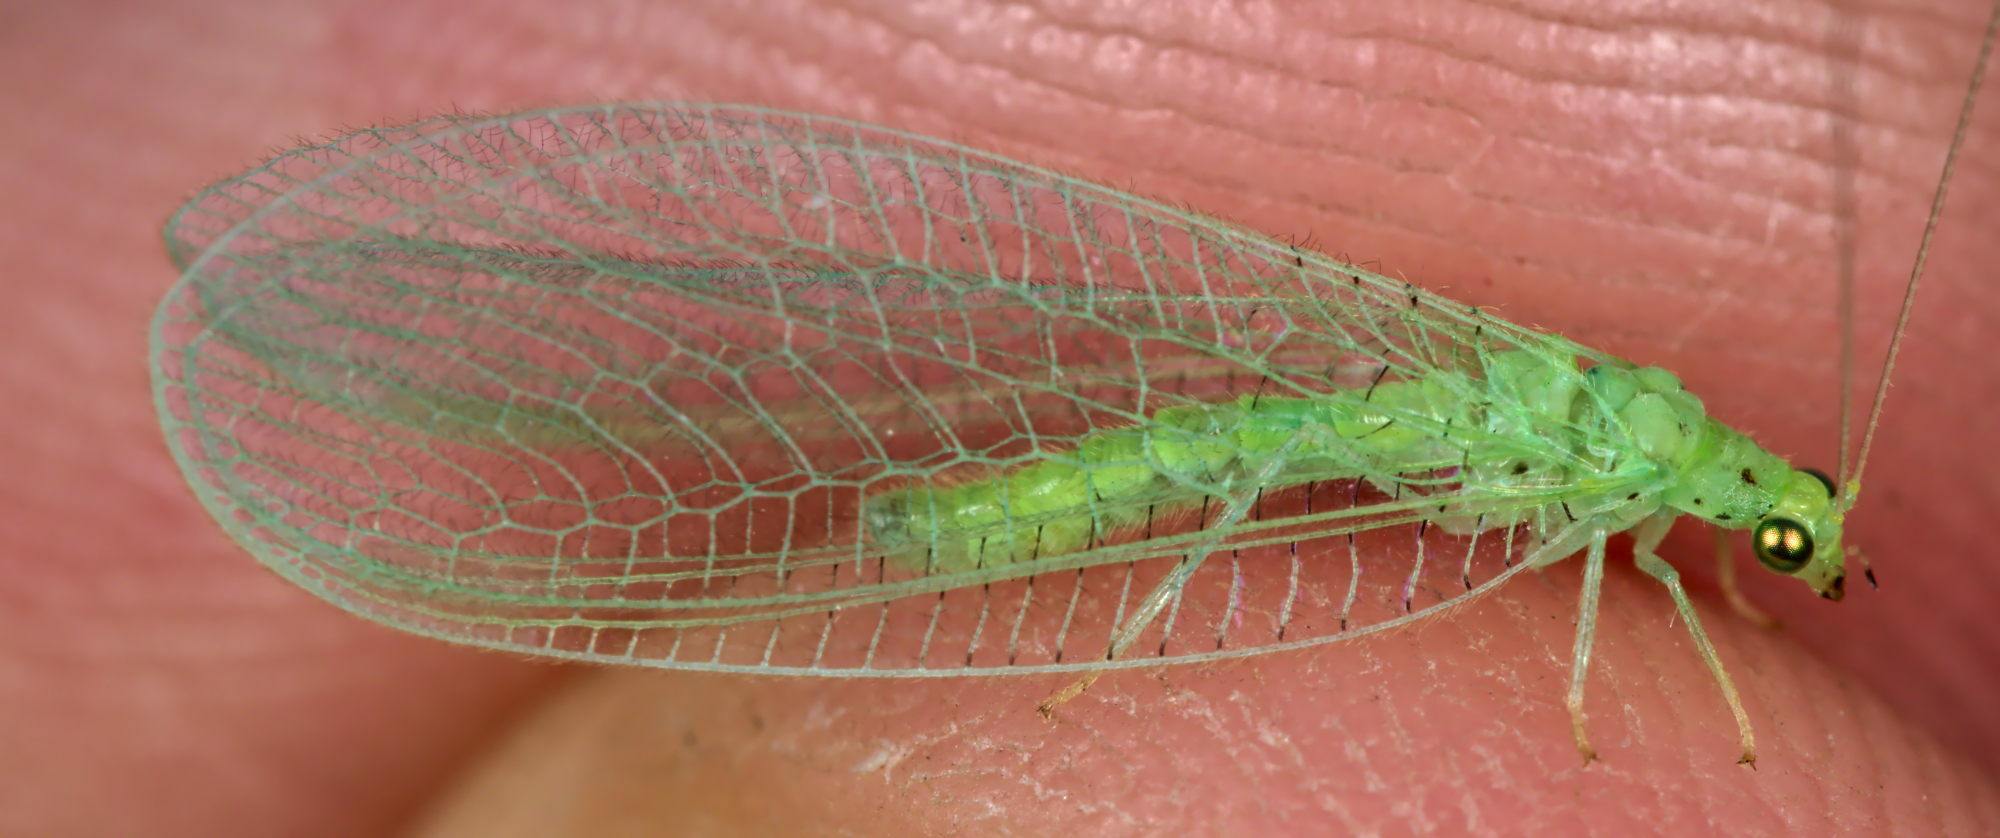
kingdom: Animalia
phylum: Arthropoda
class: Insecta
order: Neuroptera
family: Chrysopidae
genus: Pseudomallada
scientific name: Pseudomallada prasinus
